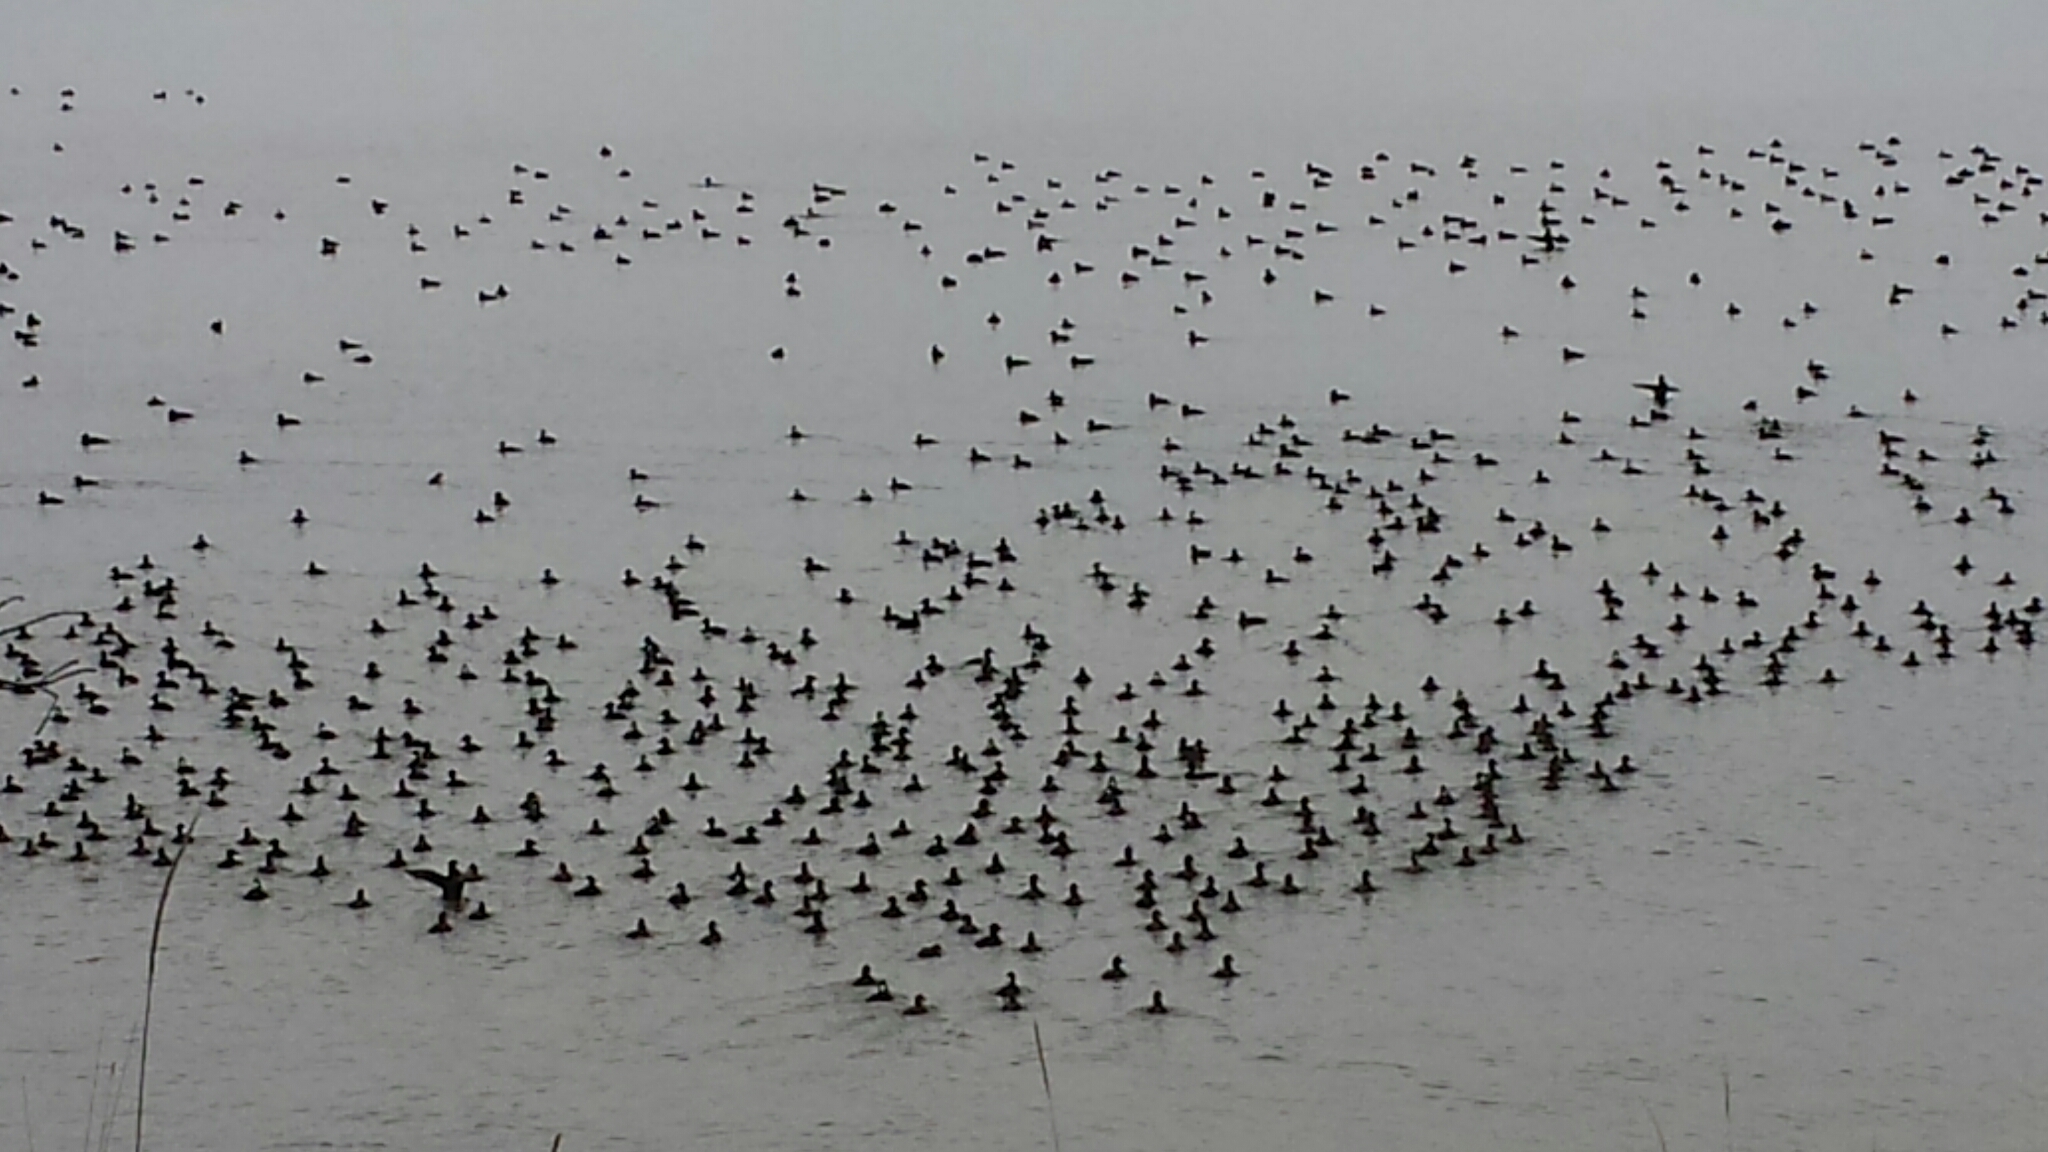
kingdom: Animalia
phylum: Chordata
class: Aves
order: Anseriformes
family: Anatidae
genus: Melanitta
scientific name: Melanitta perspicillata
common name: Surf scoter
